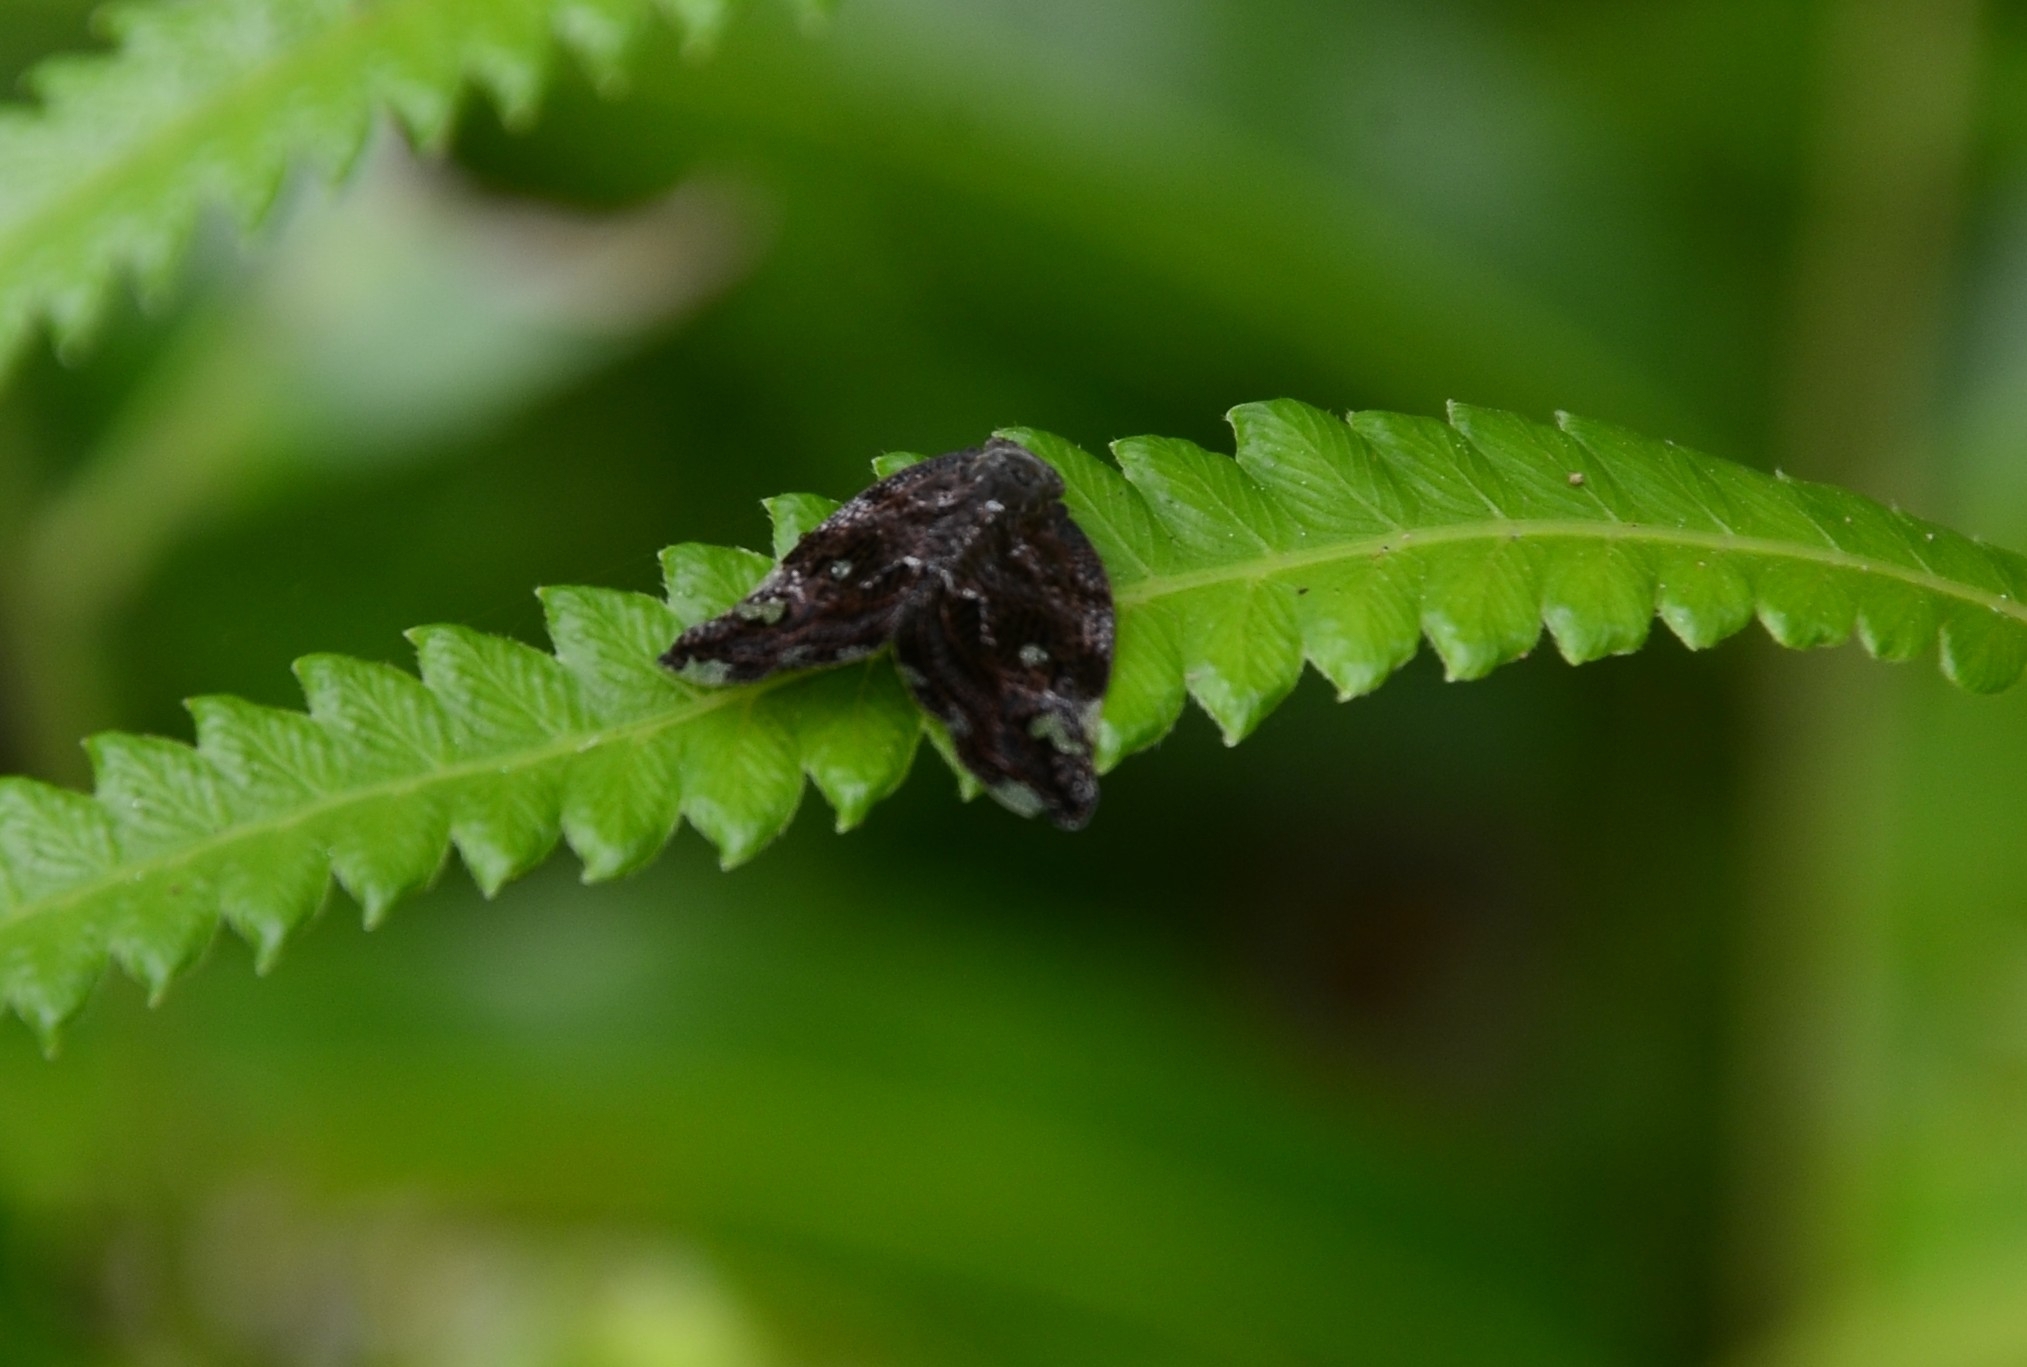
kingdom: Animalia
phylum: Arthropoda
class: Insecta
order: Hemiptera
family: Ricaniidae
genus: Ricania
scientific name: Ricania speculum
